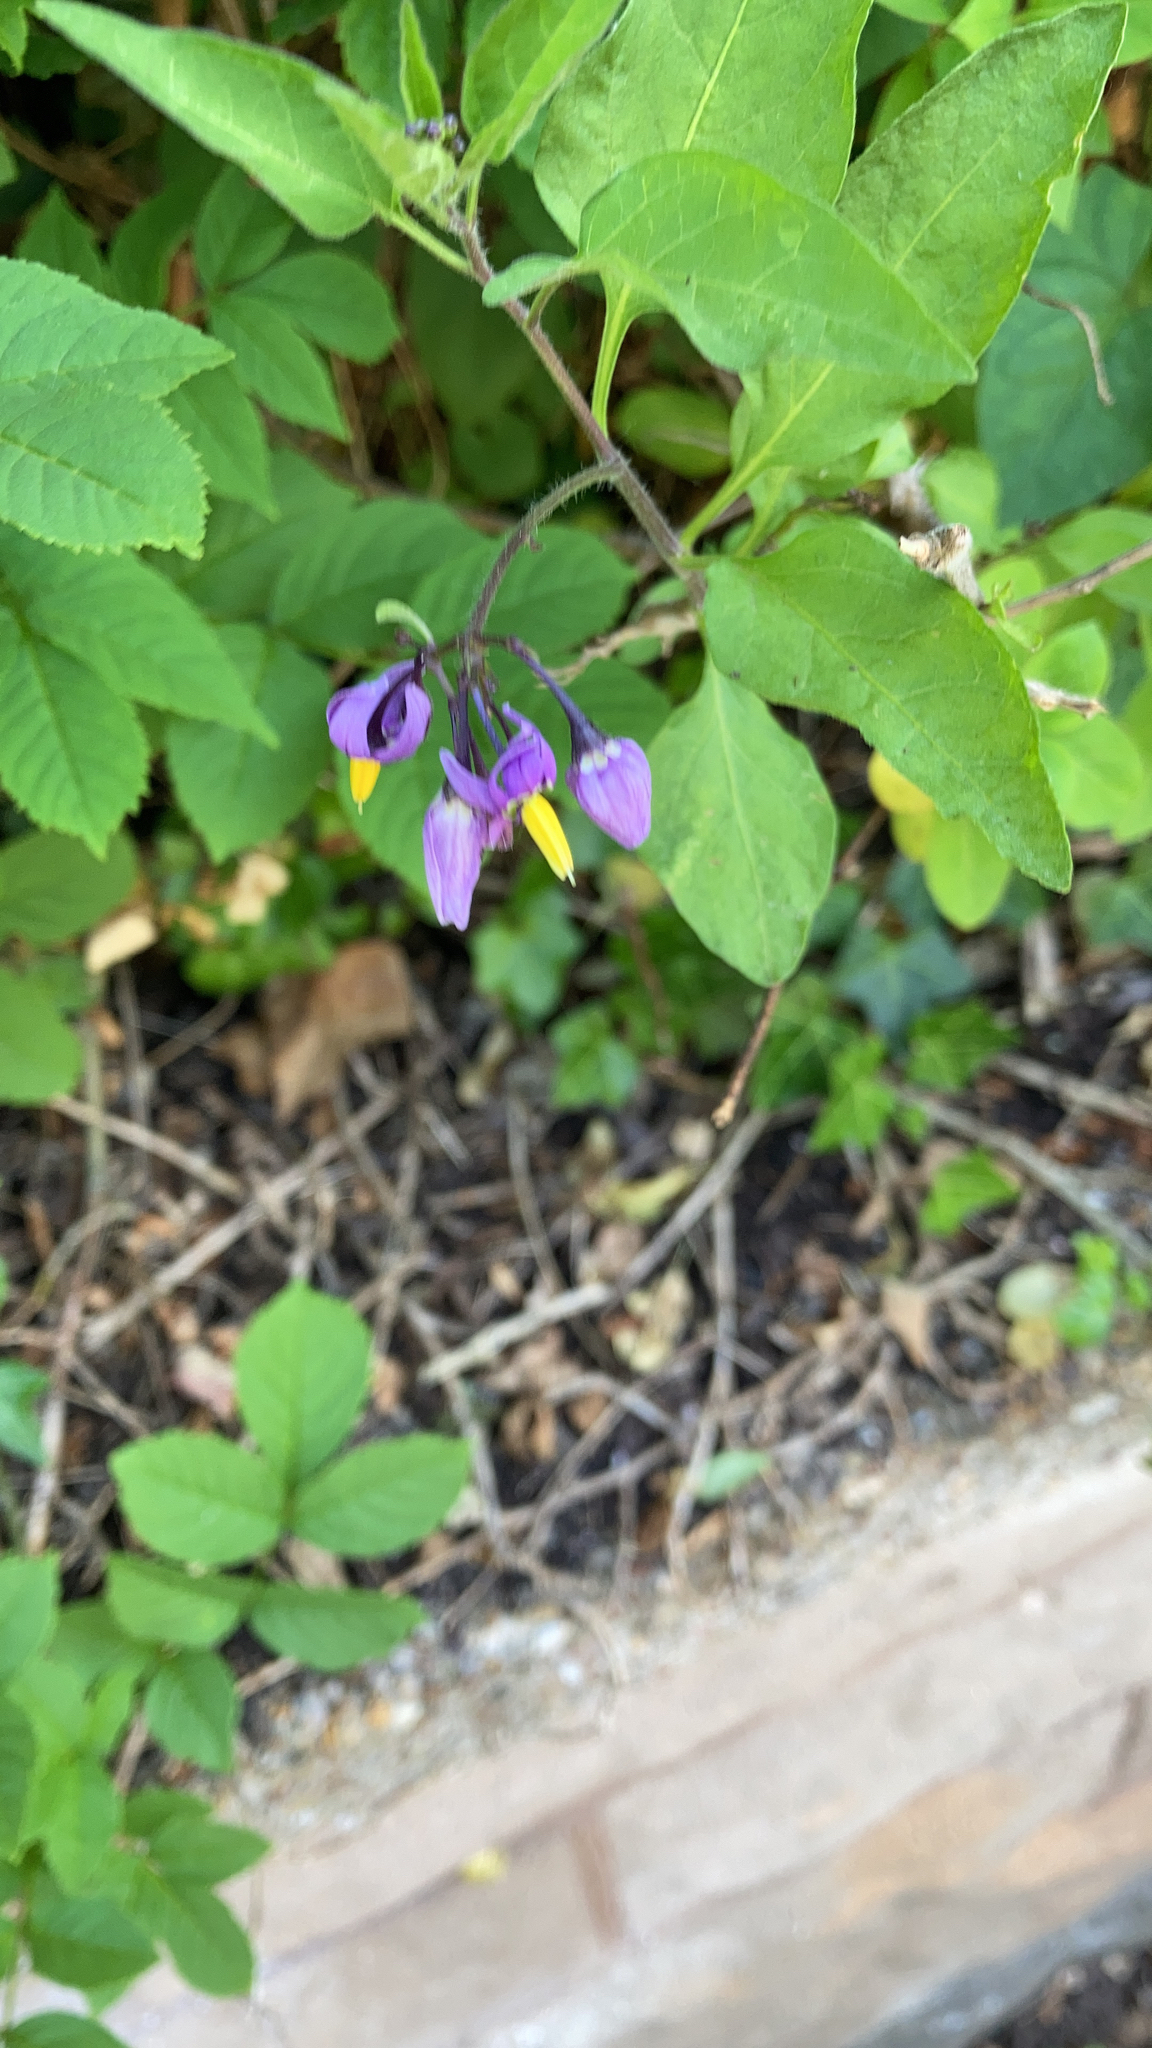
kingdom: Plantae
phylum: Tracheophyta
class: Magnoliopsida
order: Solanales
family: Solanaceae
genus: Solanum
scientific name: Solanum dulcamara
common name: Climbing nightshade
